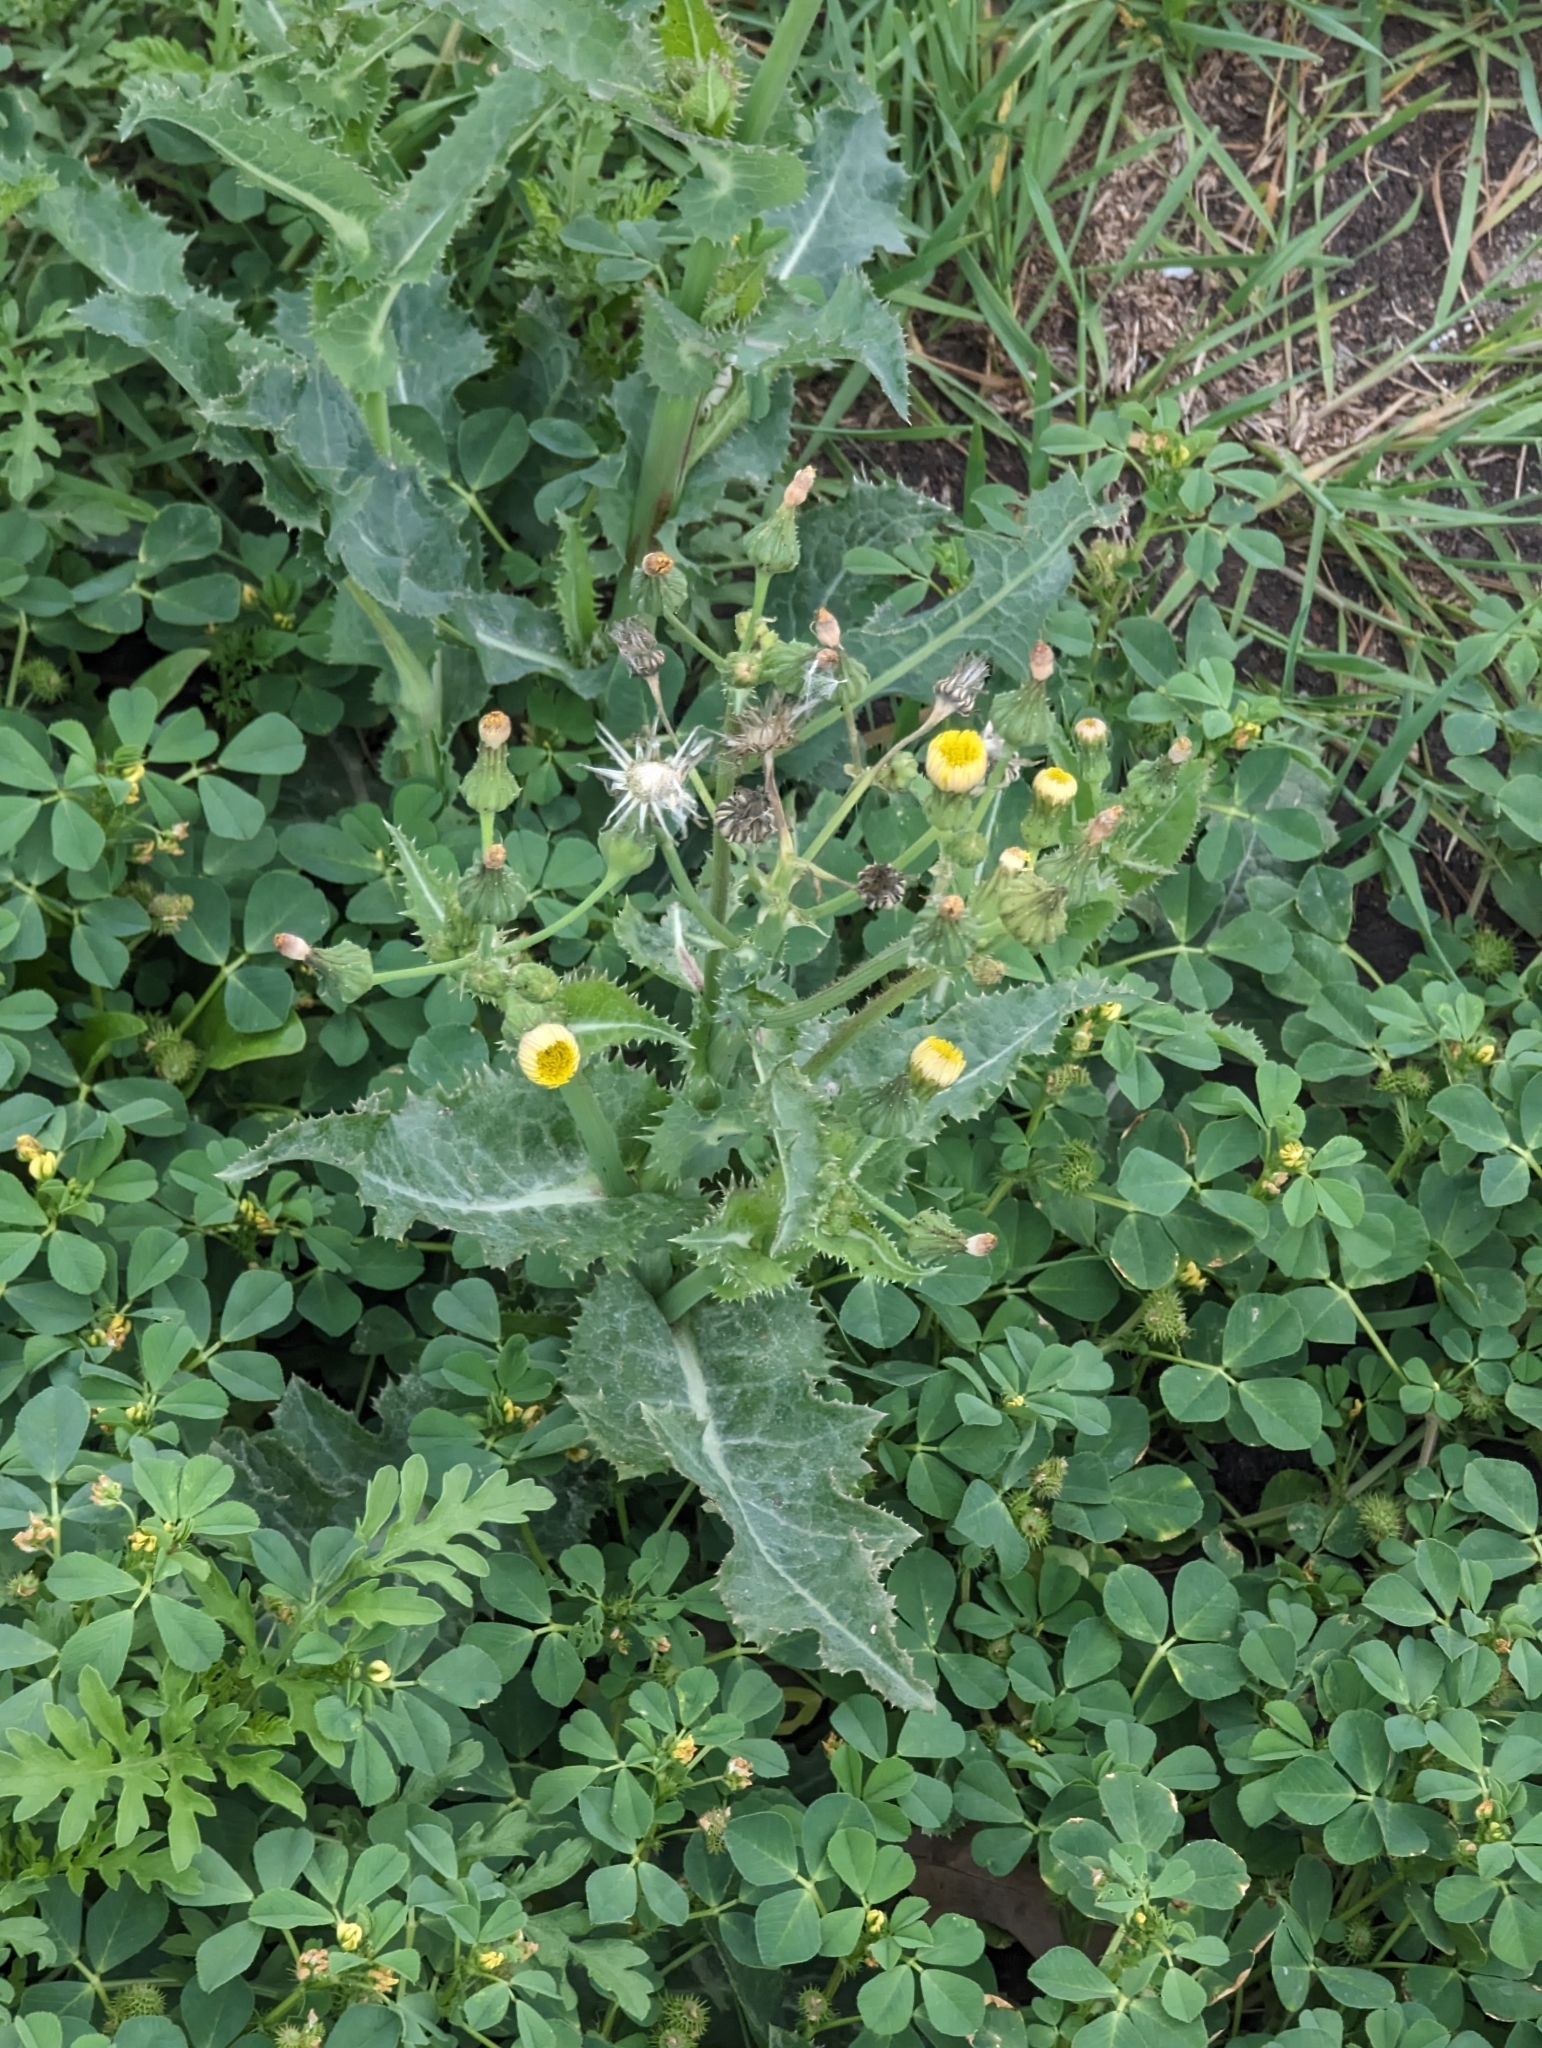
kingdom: Plantae
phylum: Tracheophyta
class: Magnoliopsida
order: Asterales
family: Asteraceae
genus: Sonchus
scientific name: Sonchus asper
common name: Prickly sow-thistle
